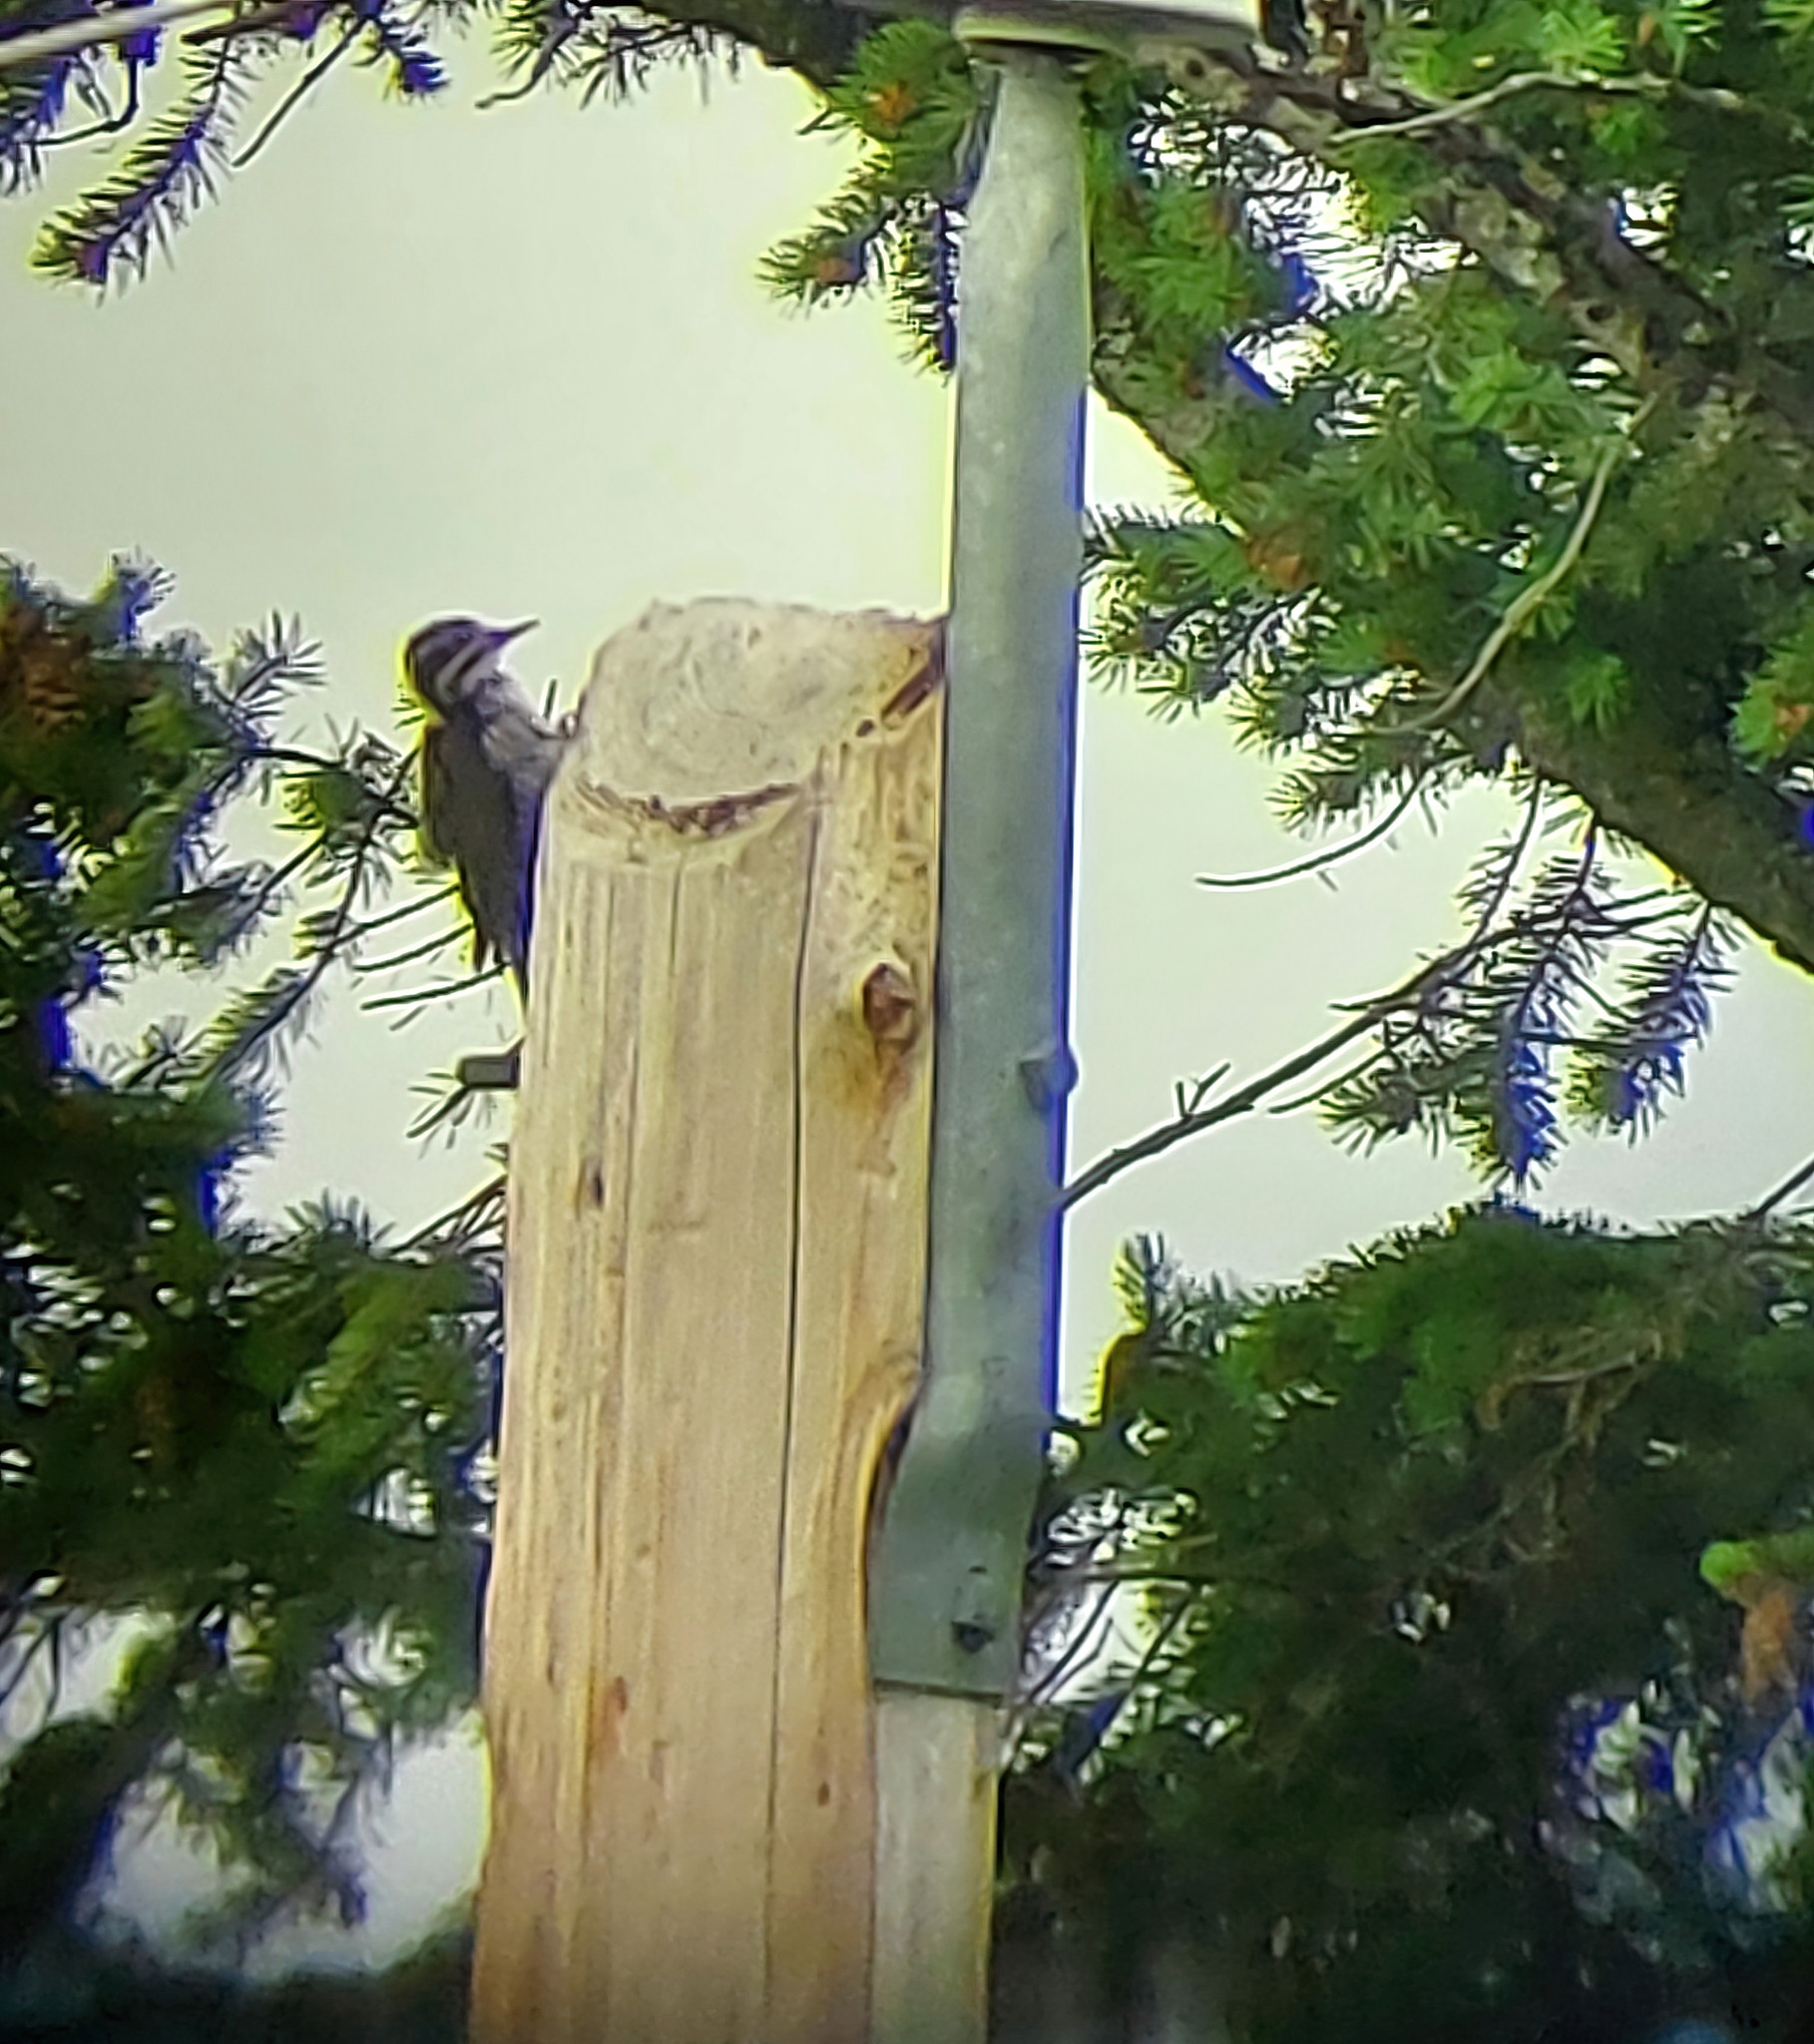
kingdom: Animalia
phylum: Chordata
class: Aves
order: Piciformes
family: Picidae
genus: Picoides
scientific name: Picoides dorsalis
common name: American three-toed woodpecker
